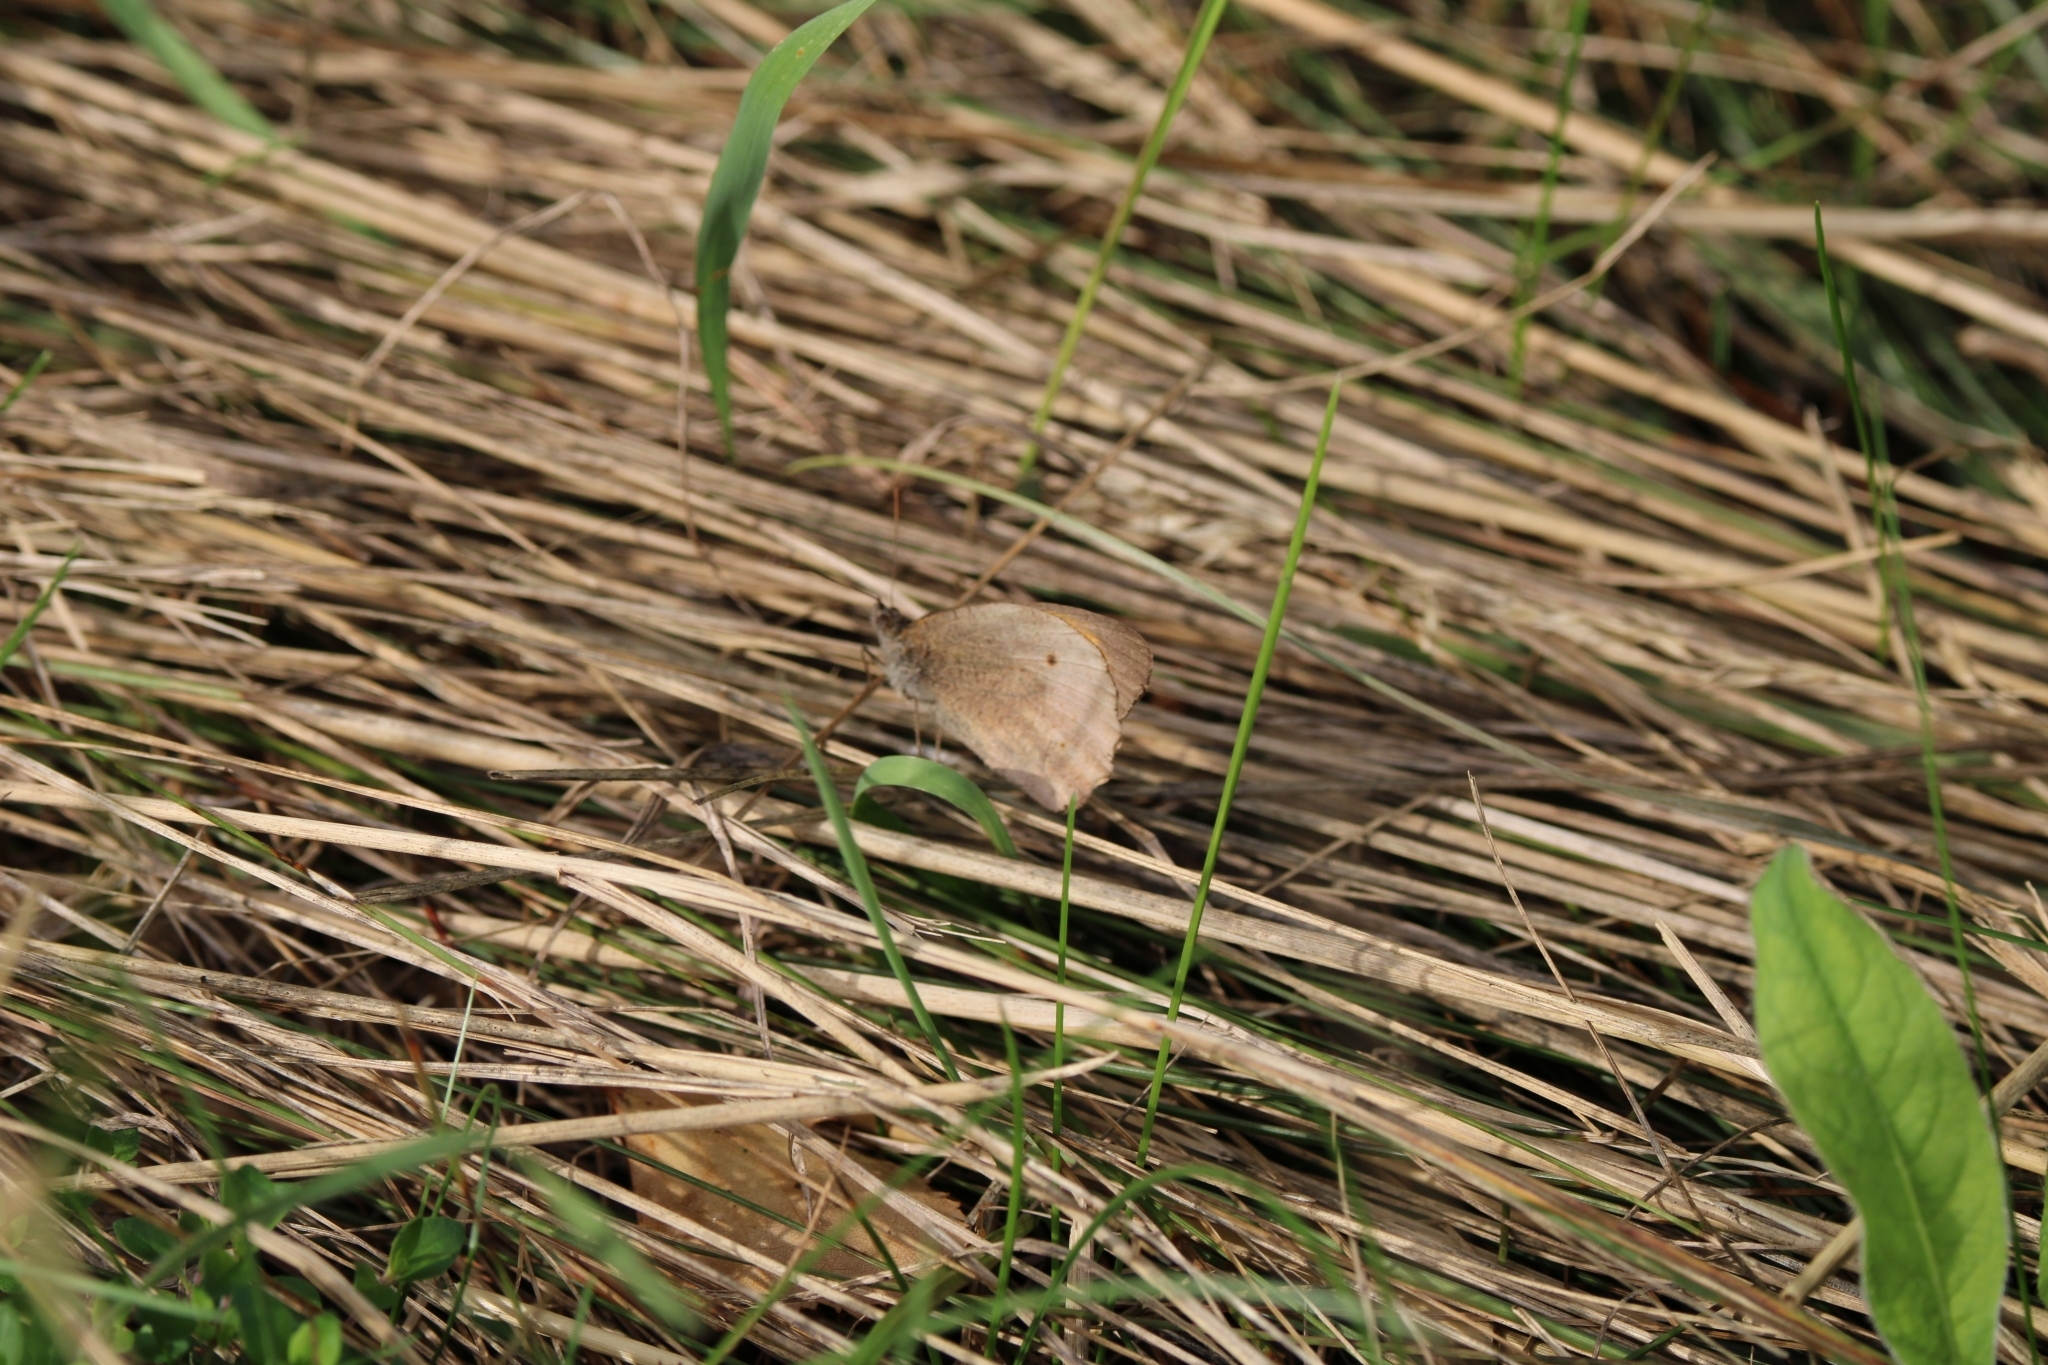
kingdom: Animalia
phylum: Arthropoda
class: Insecta
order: Lepidoptera
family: Nymphalidae
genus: Maniola
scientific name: Maniola jurtina
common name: Meadow brown
